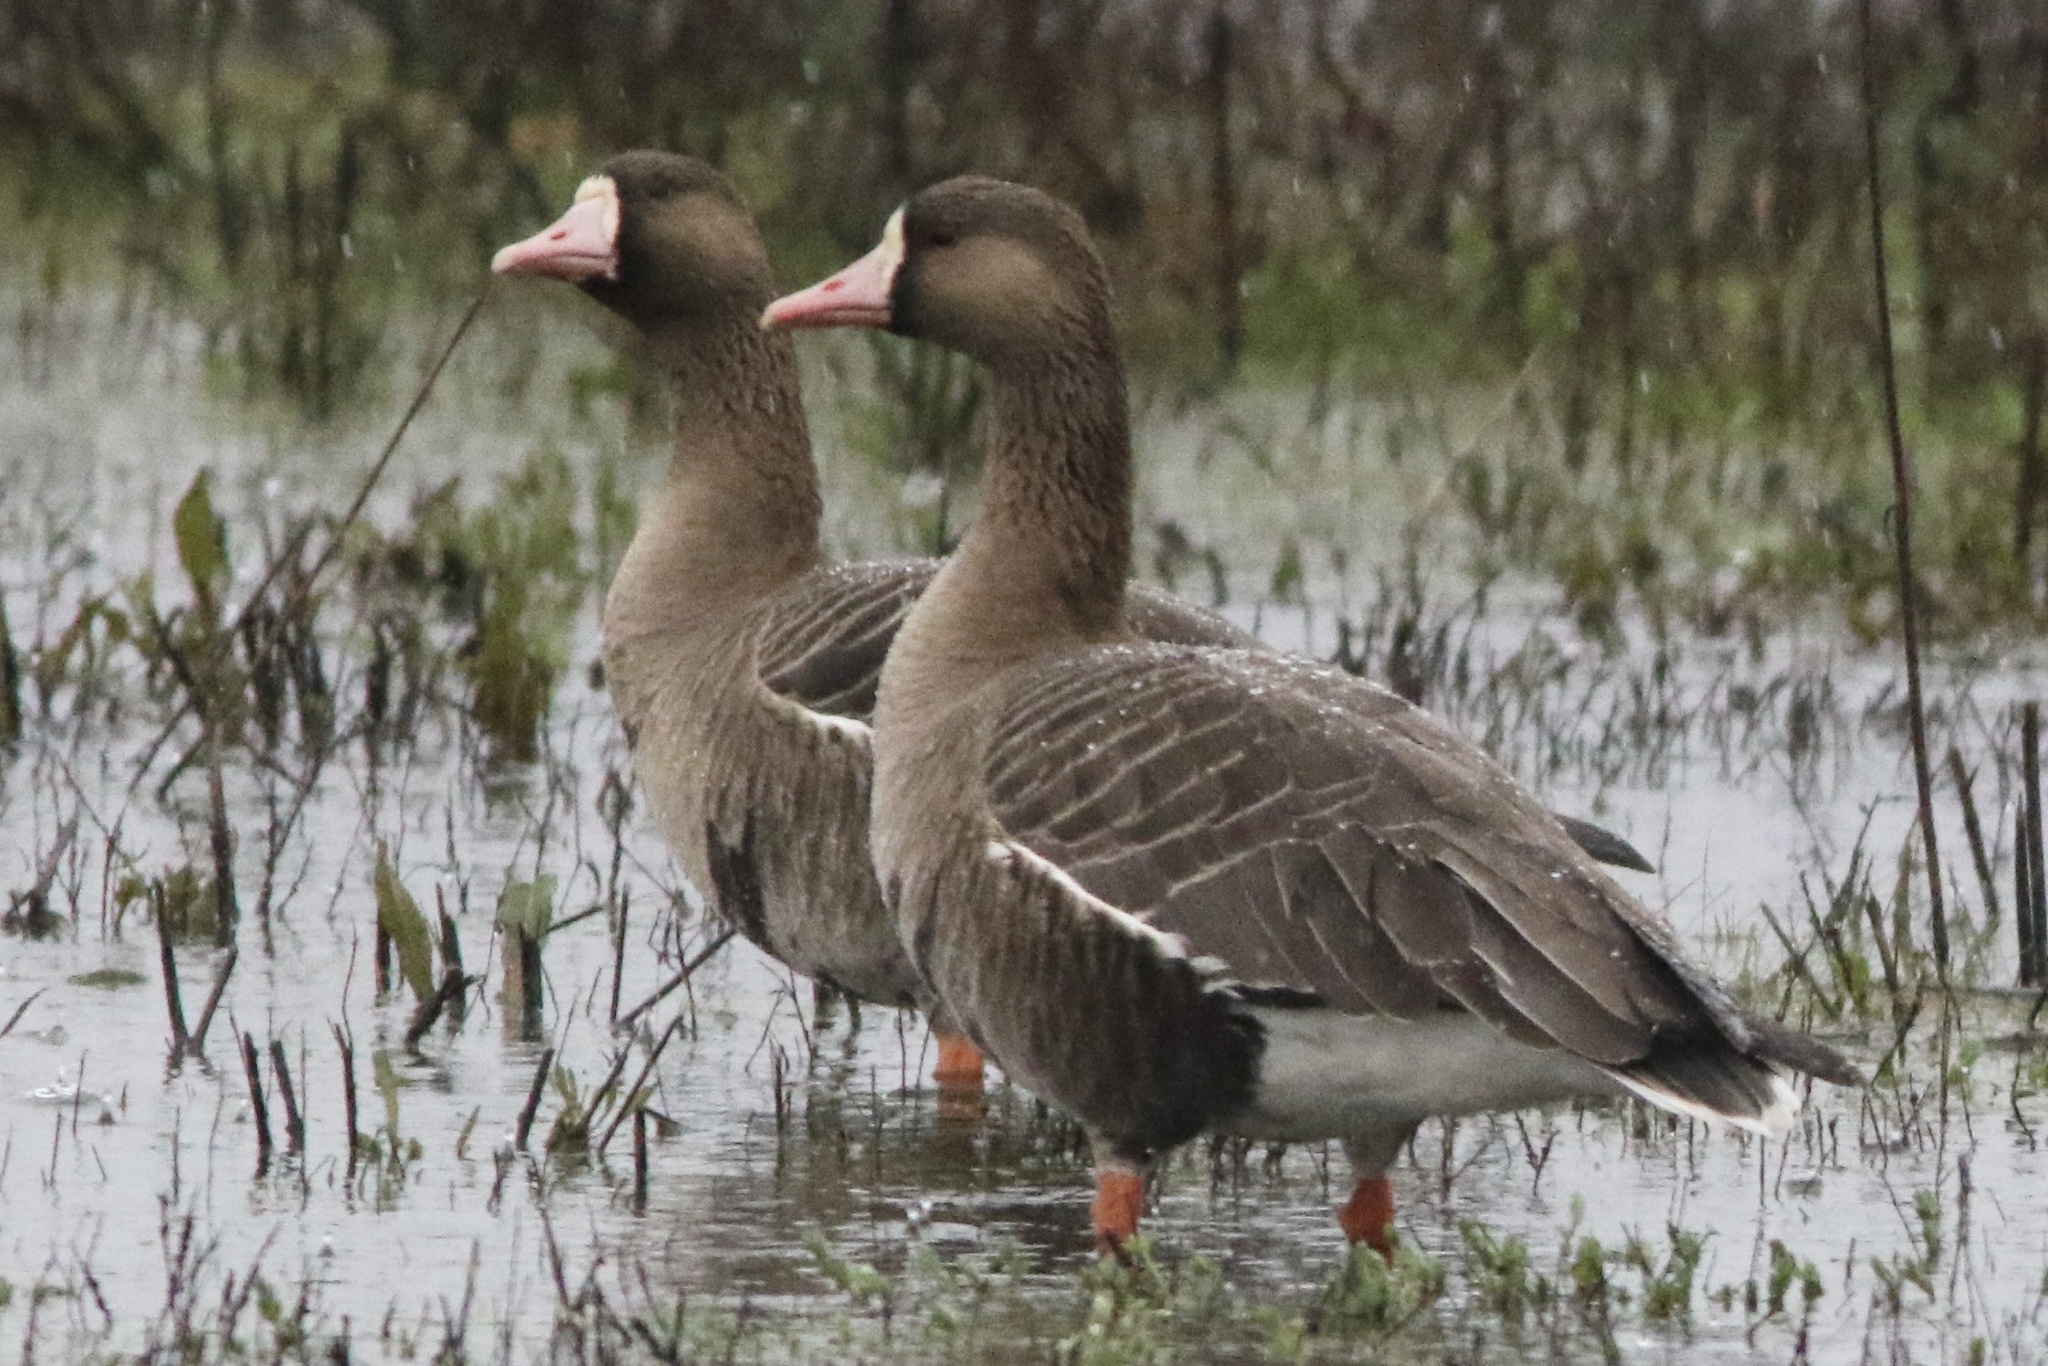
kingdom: Animalia
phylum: Chordata
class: Aves
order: Anseriformes
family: Anatidae
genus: Anser
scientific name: Anser albifrons
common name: Greater white-fronted goose
